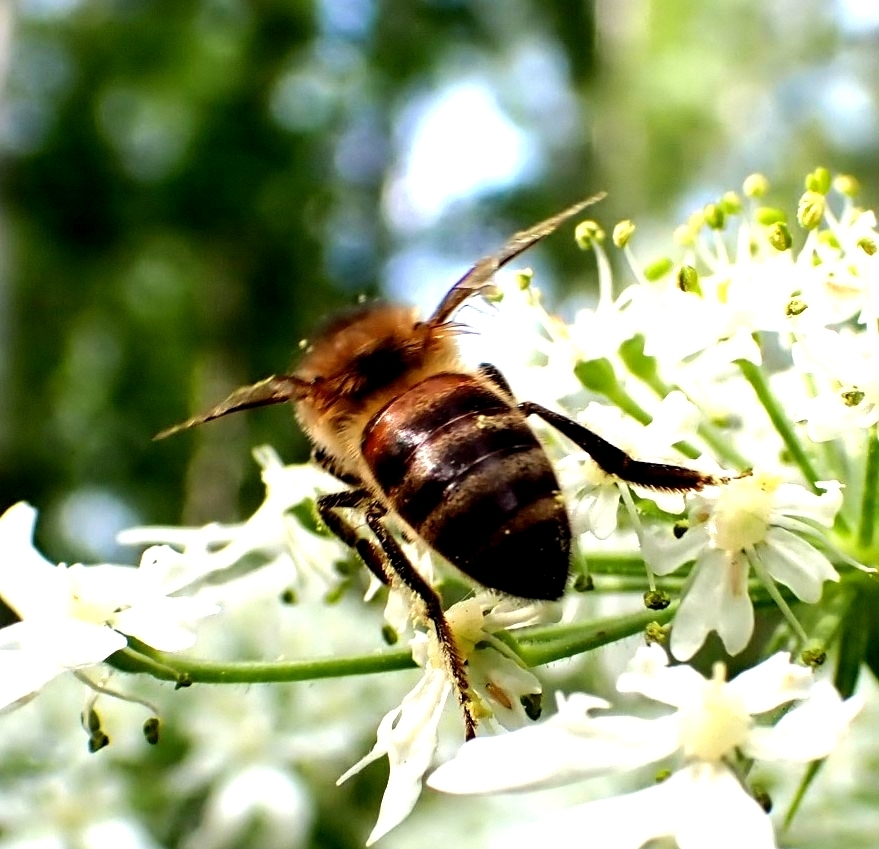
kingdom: Animalia
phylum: Arthropoda
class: Insecta
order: Hymenoptera
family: Apidae
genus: Apis
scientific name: Apis mellifera
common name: Honey bee
